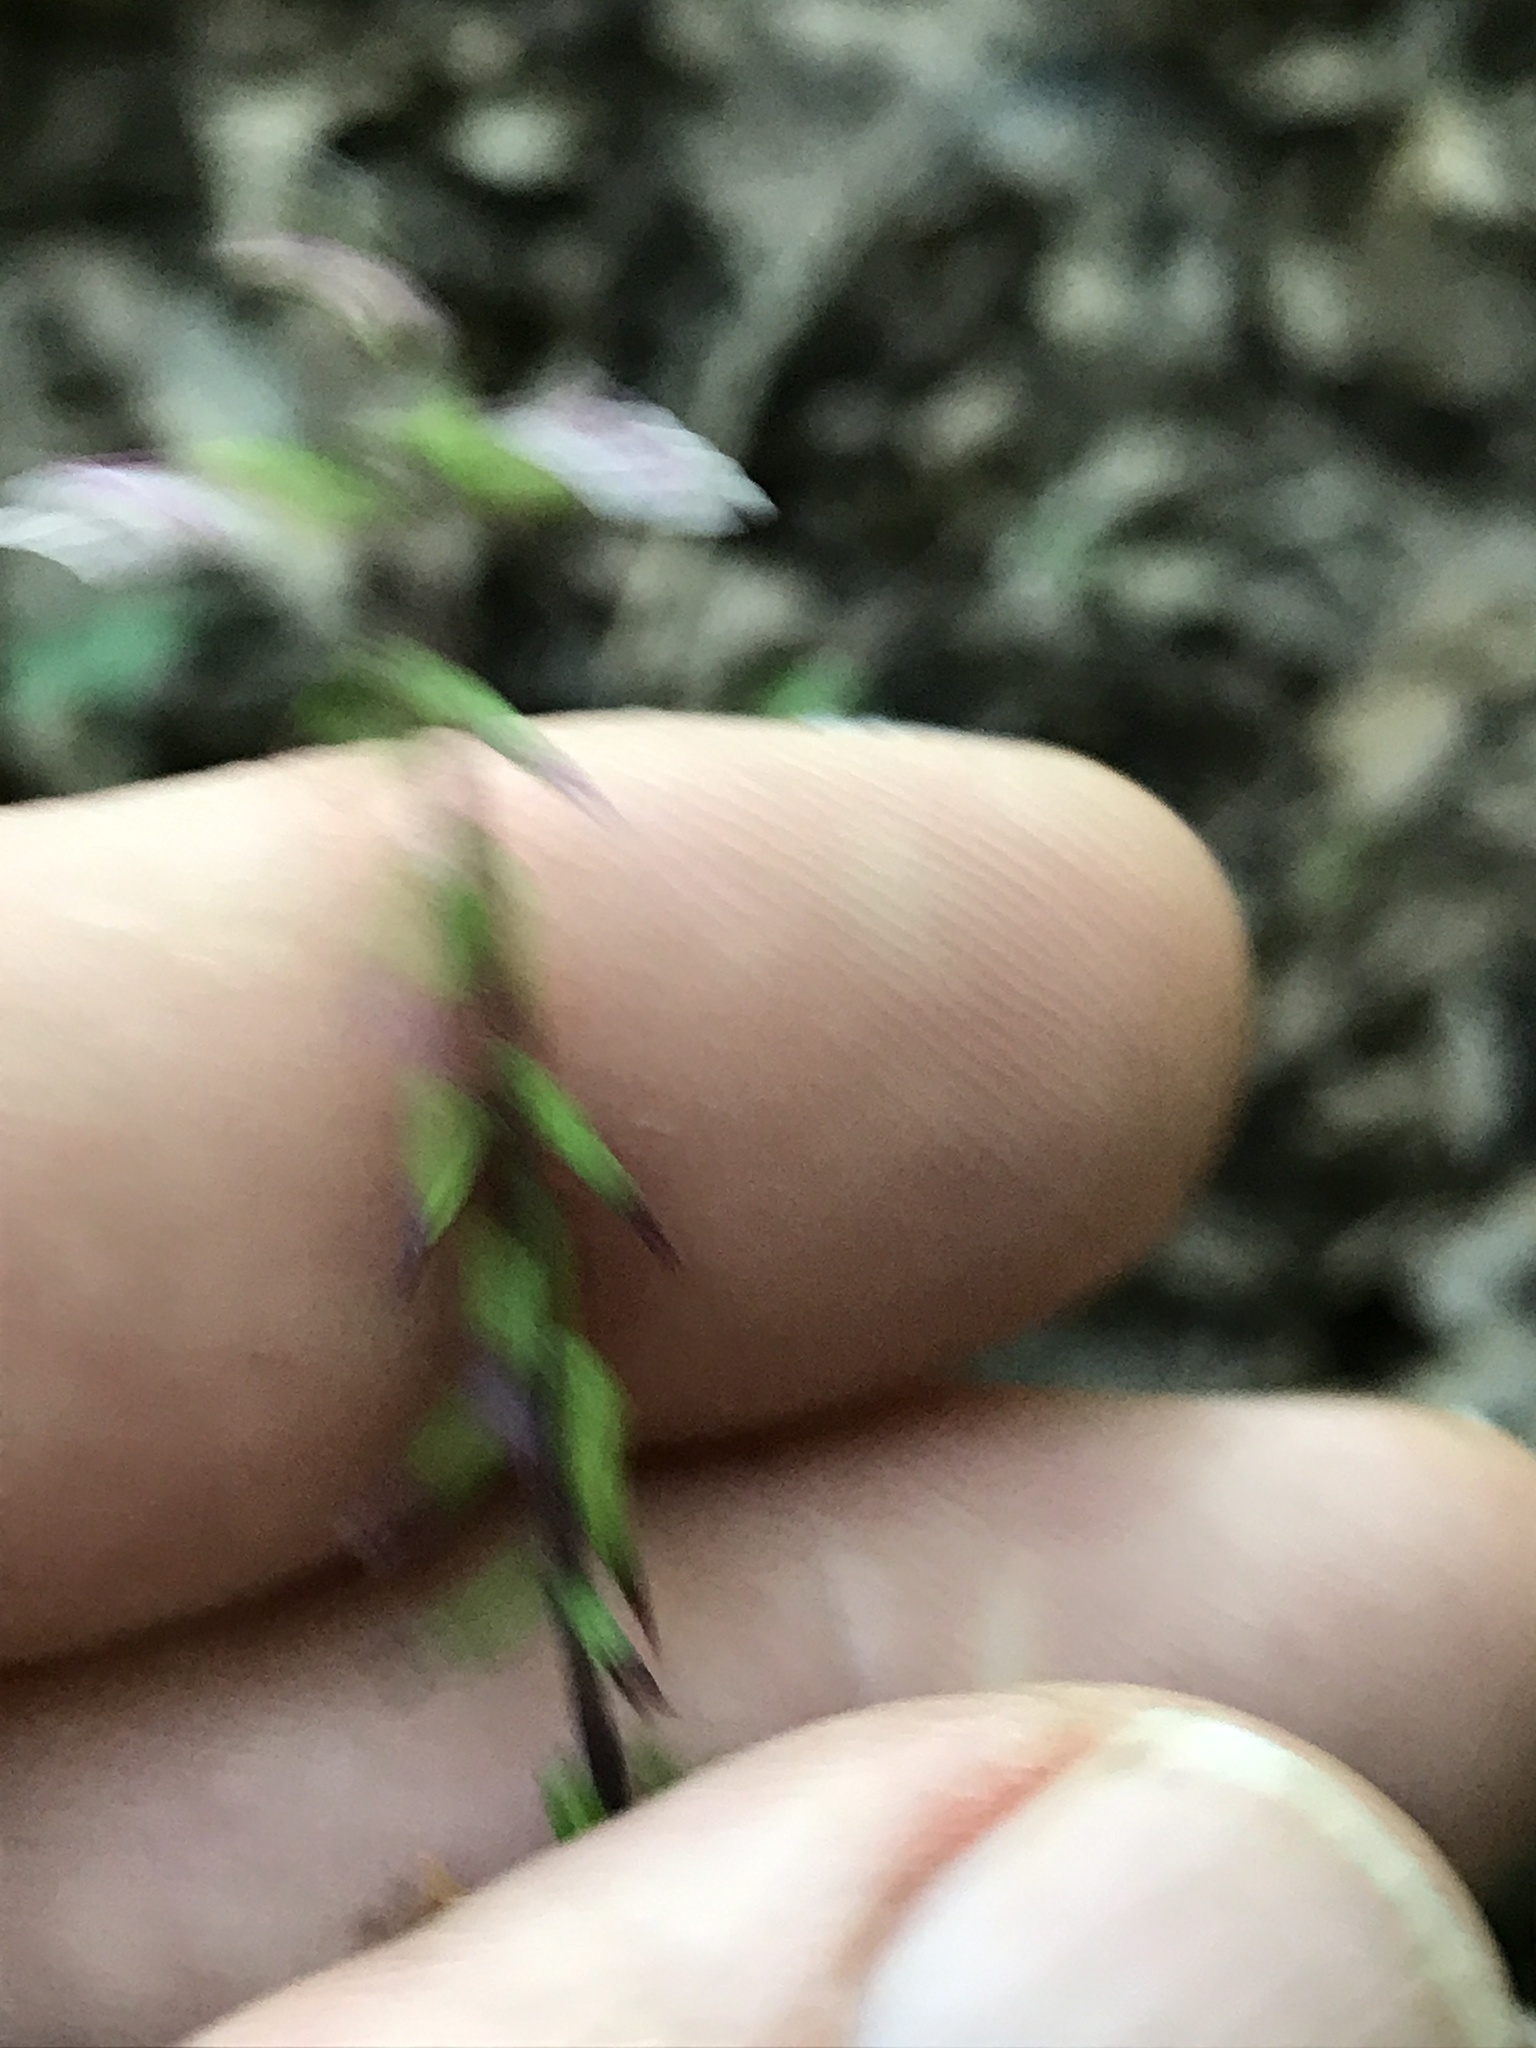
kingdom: Plantae
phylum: Tracheophyta
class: Magnoliopsida
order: Lamiales
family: Phrymaceae
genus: Phryma
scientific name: Phryma leptostachya
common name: American lopseed
